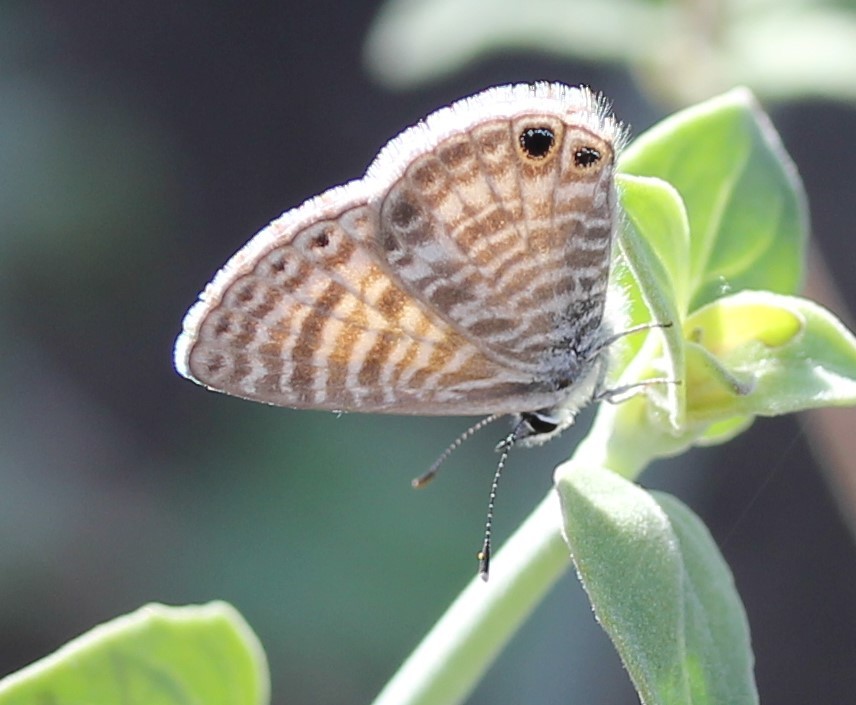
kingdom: Animalia
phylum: Arthropoda
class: Insecta
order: Lepidoptera
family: Lycaenidae
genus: Leptotes
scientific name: Leptotes marina
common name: Marine blue
